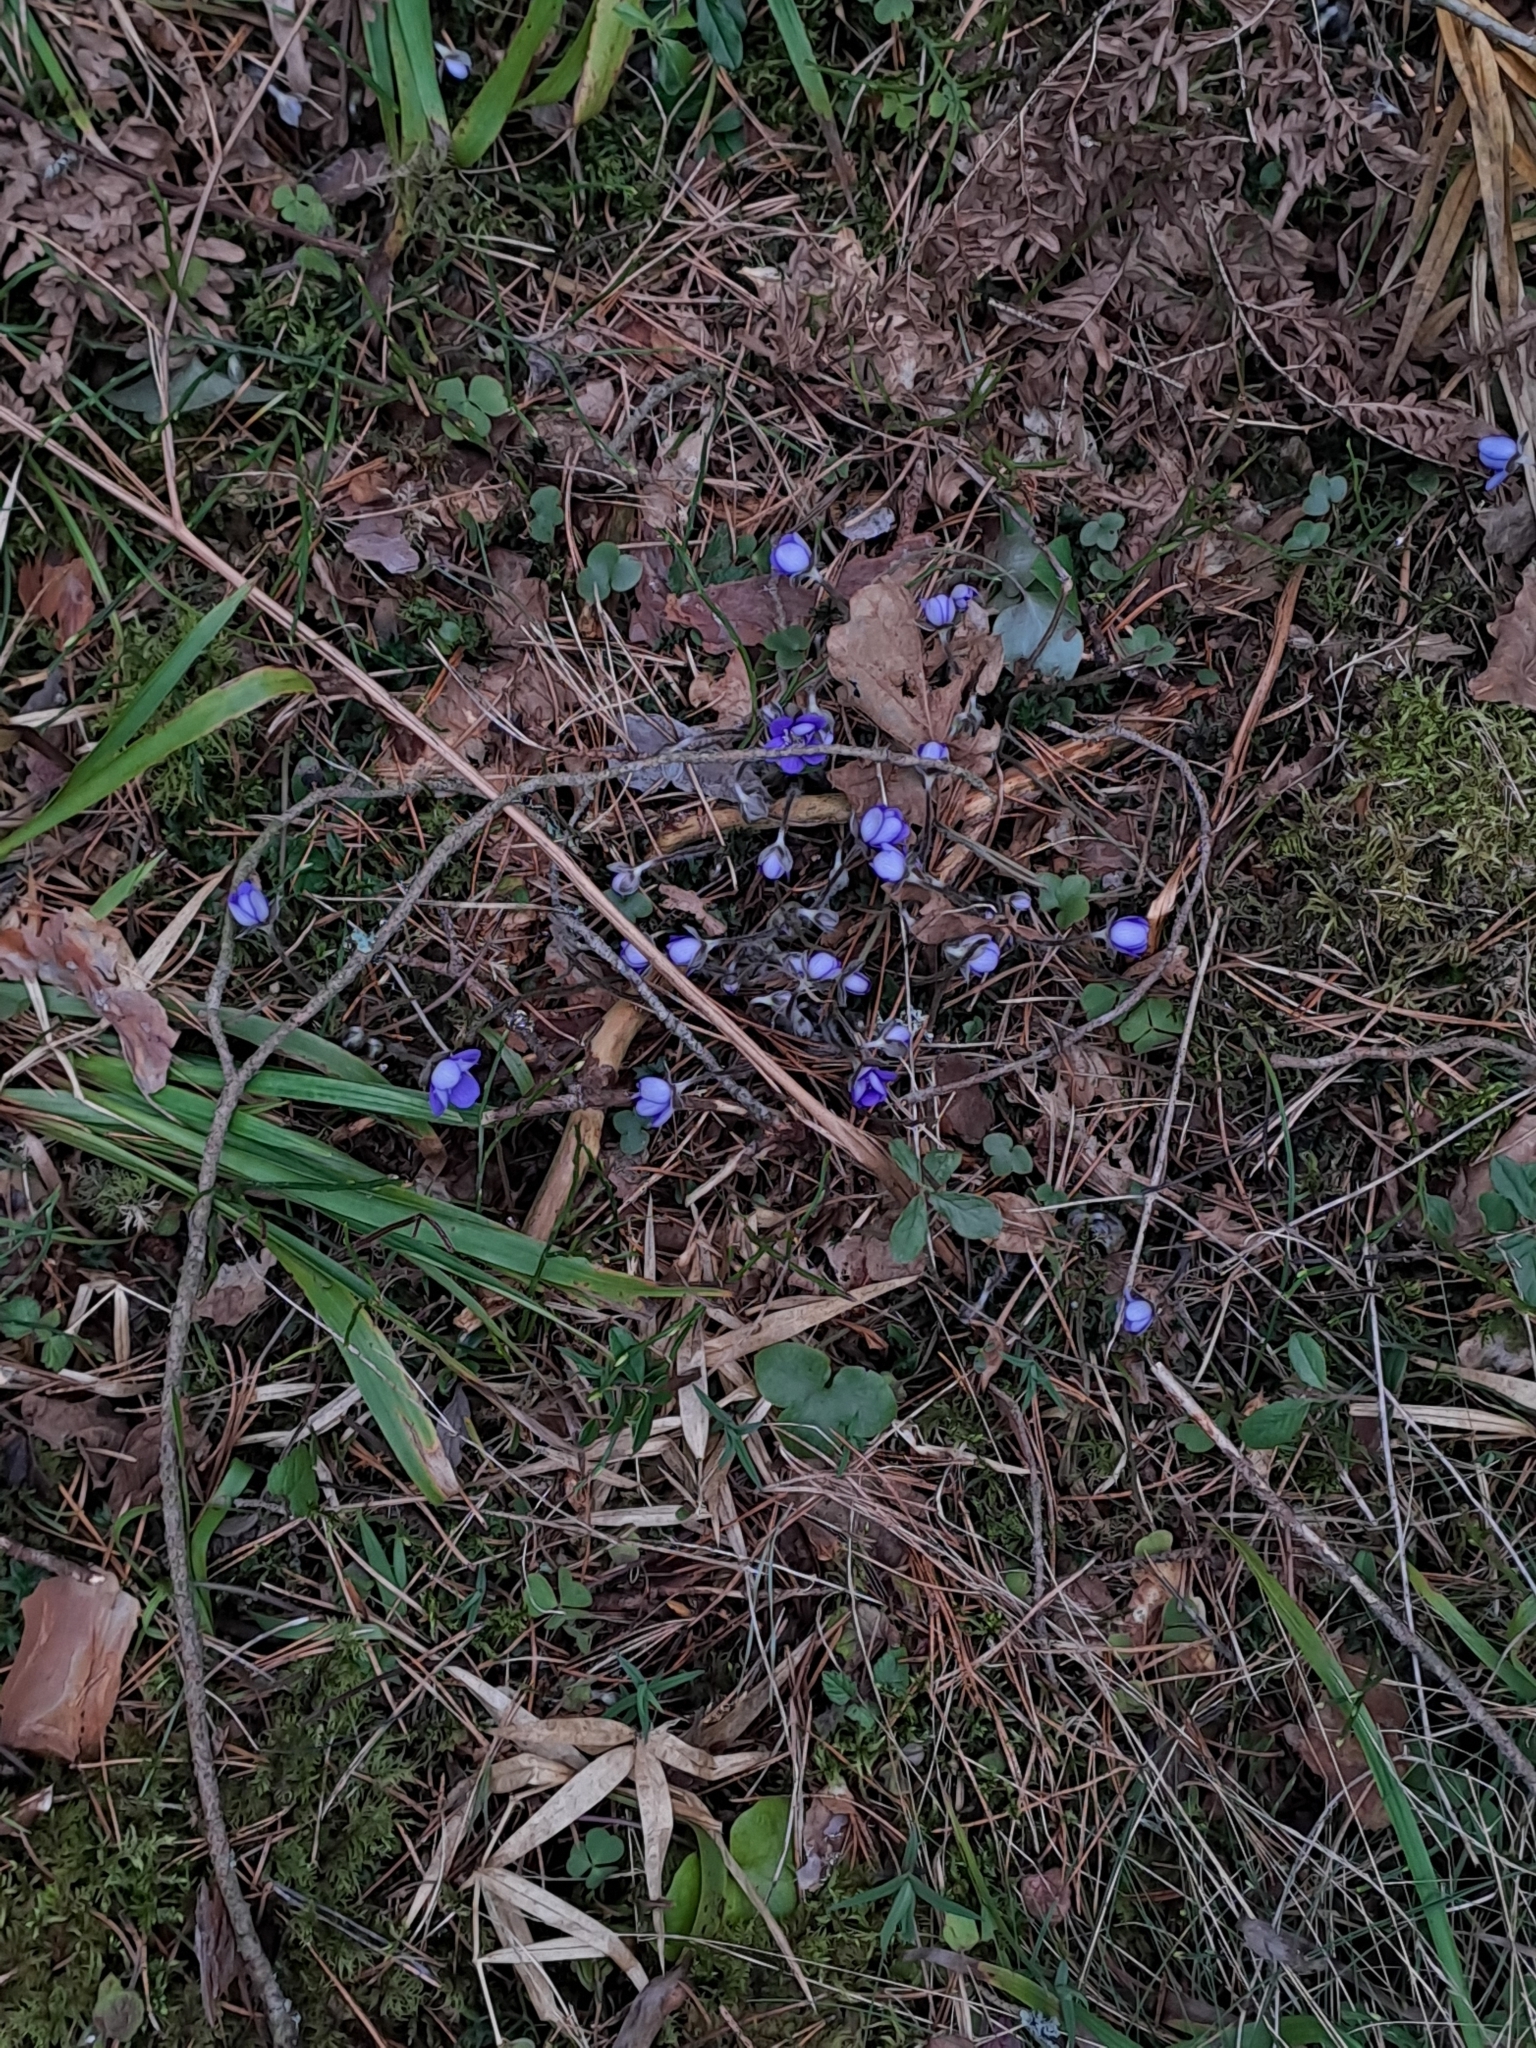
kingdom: Plantae
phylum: Tracheophyta
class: Magnoliopsida
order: Ranunculales
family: Ranunculaceae
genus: Hepatica
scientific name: Hepatica nobilis
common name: Liverleaf
